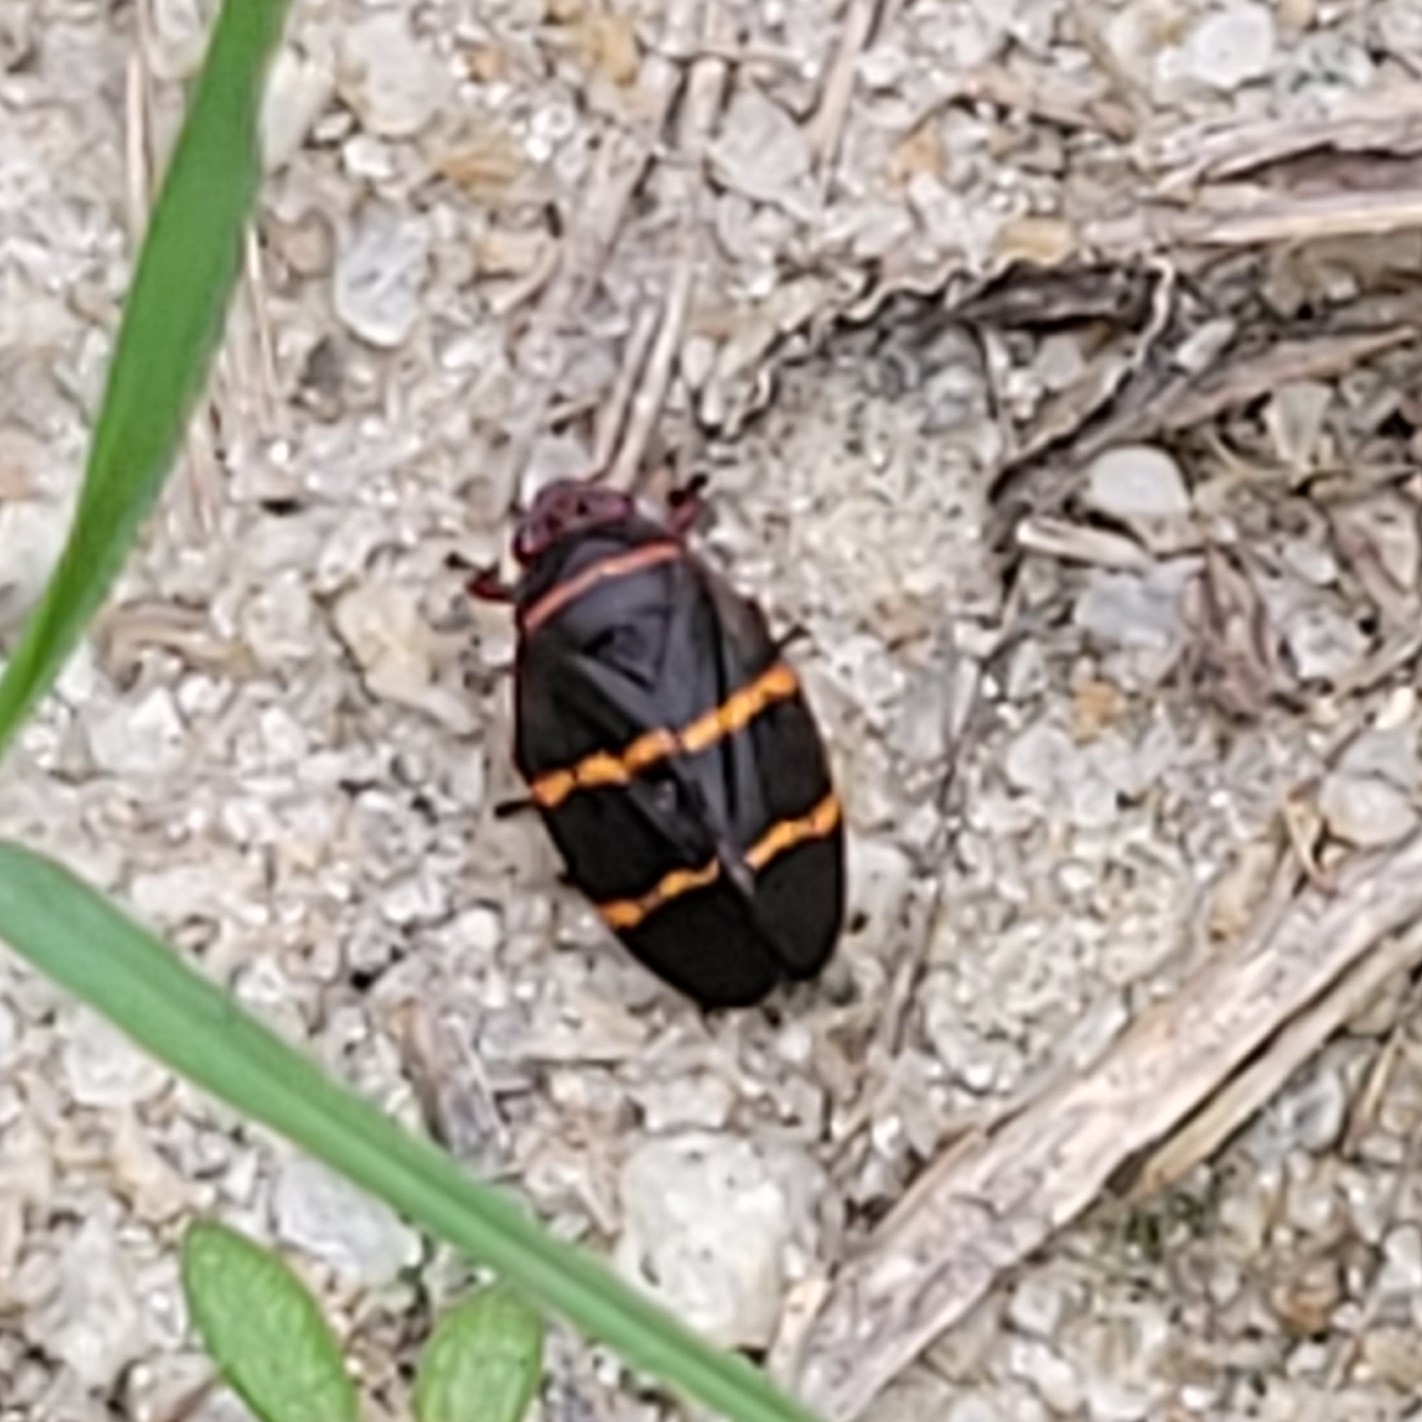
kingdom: Animalia
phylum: Arthropoda
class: Insecta
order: Hemiptera
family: Cercopidae
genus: Prosapia
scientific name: Prosapia bicincta
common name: Twolined spittlebug
